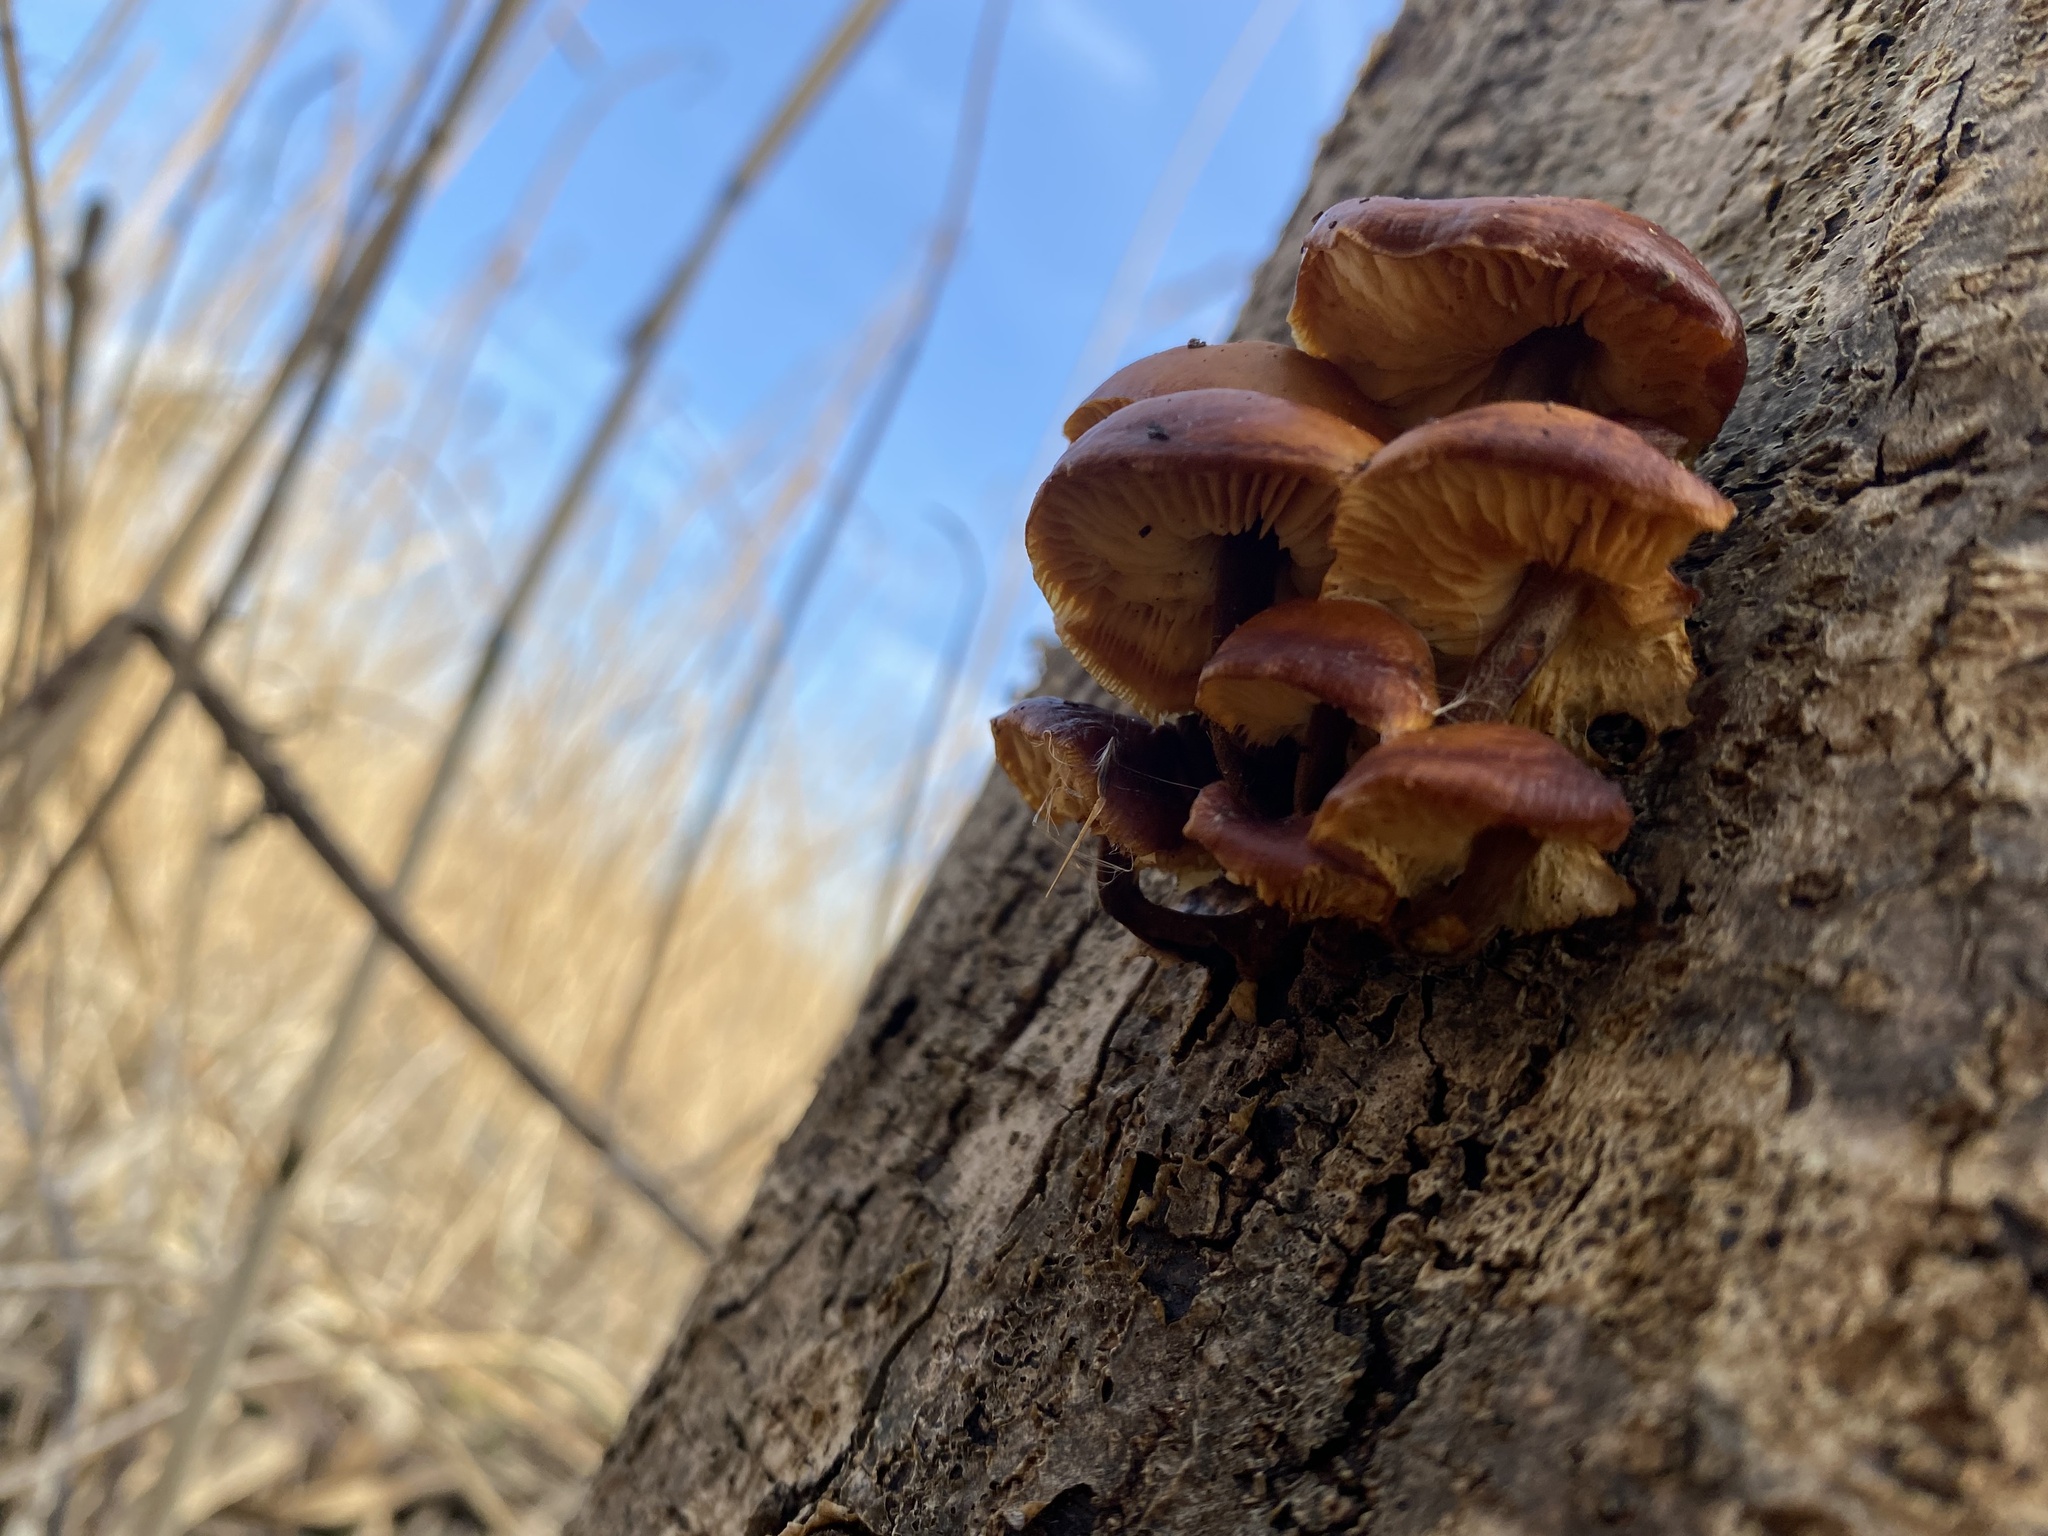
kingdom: Fungi
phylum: Basidiomycota
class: Agaricomycetes
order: Agaricales
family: Physalacriaceae
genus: Flammulina
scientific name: Flammulina
